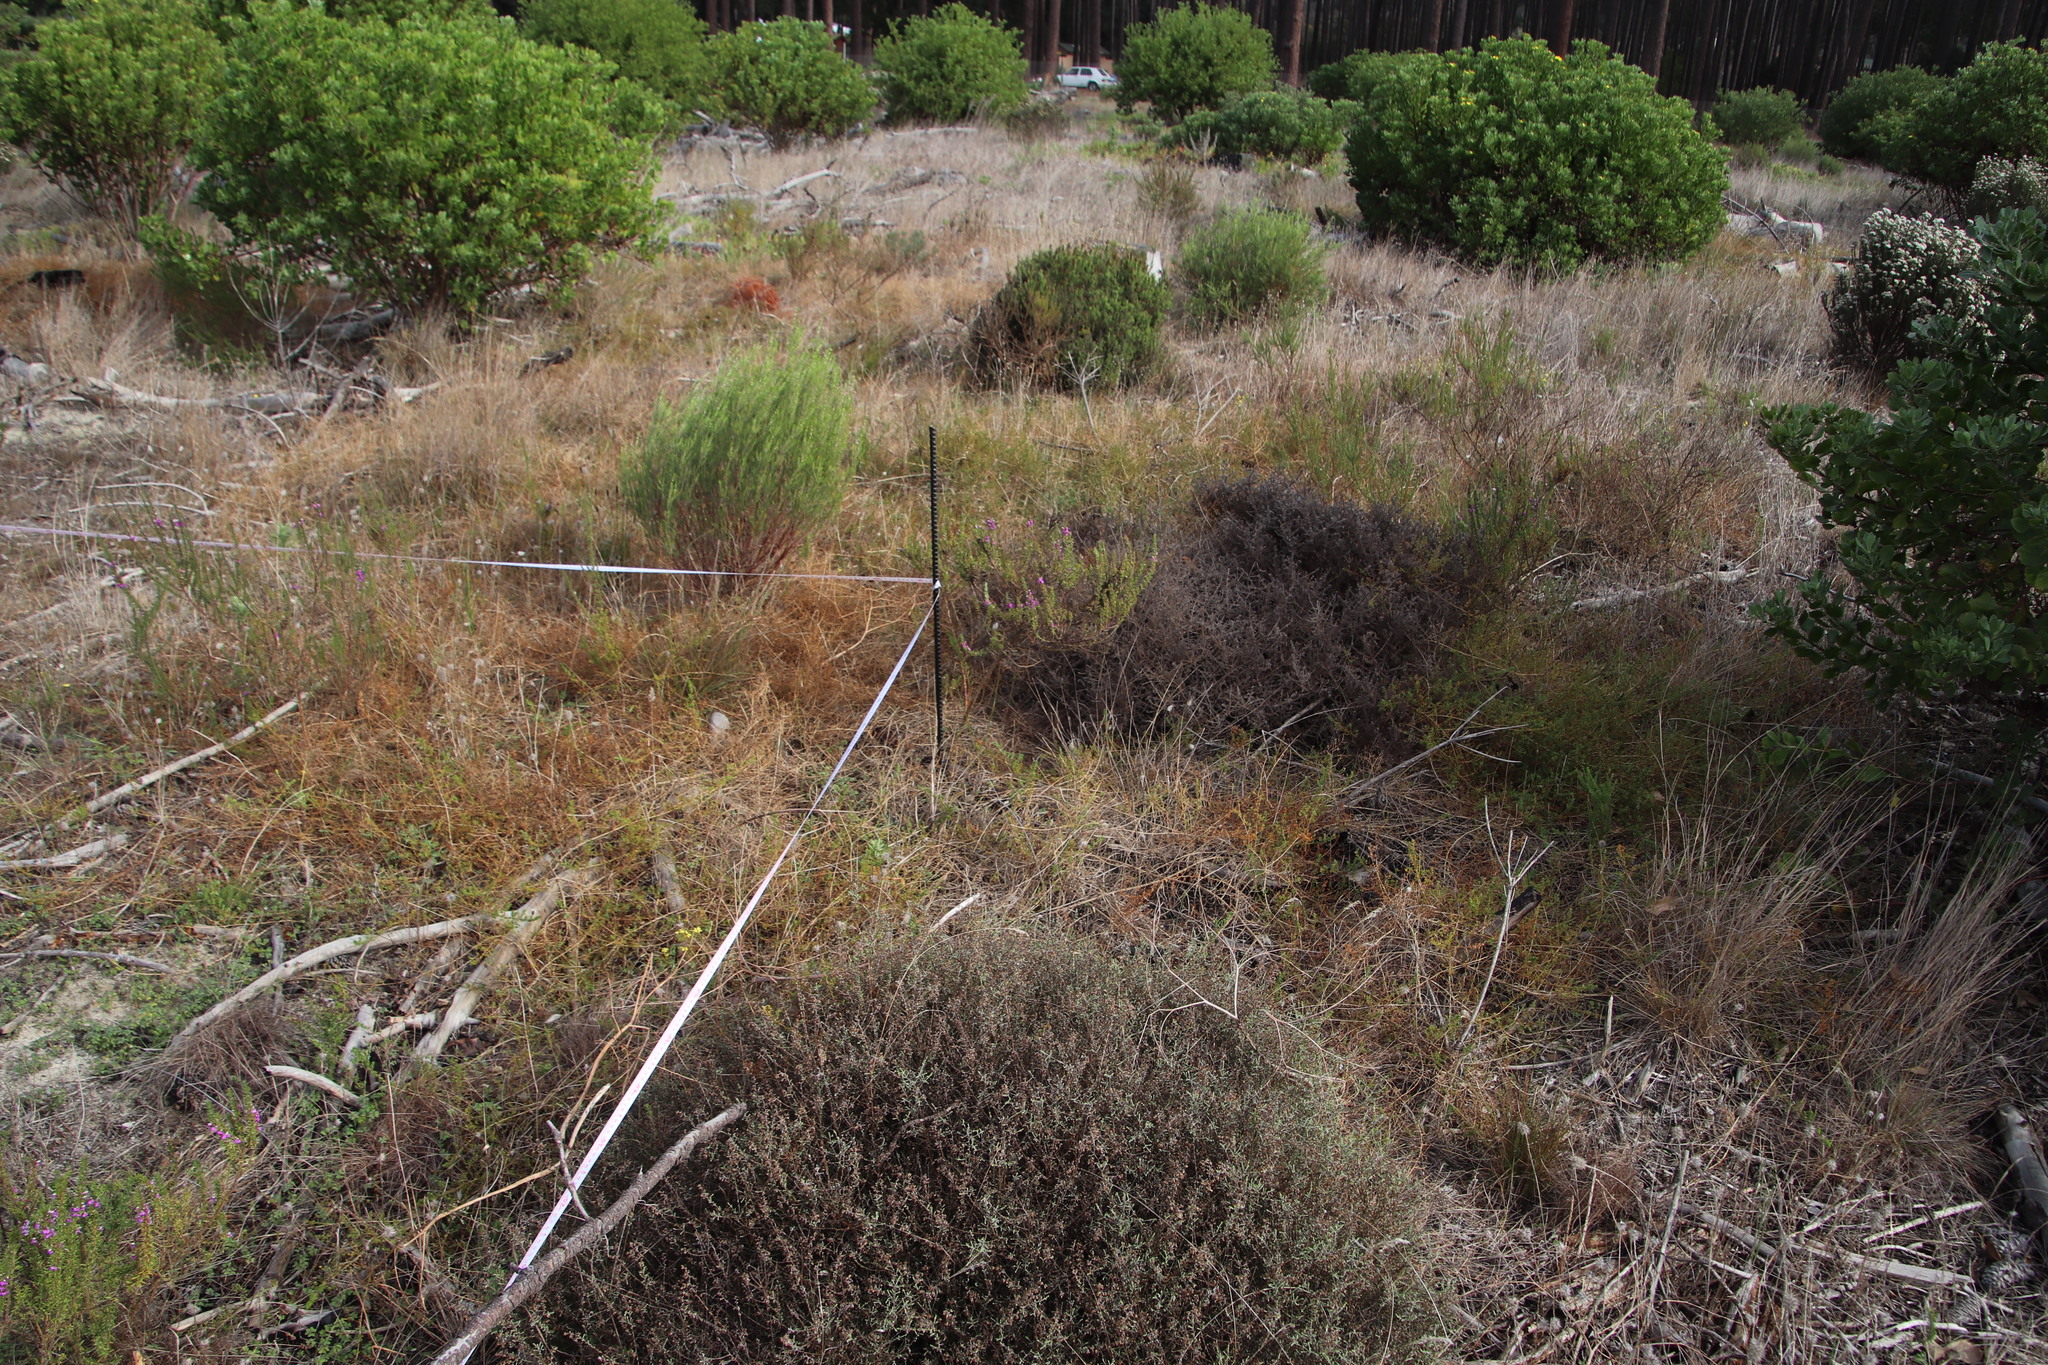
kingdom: Plantae
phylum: Tracheophyta
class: Magnoliopsida
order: Fabales
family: Polygalaceae
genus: Muraltia
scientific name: Muraltia heisteria
